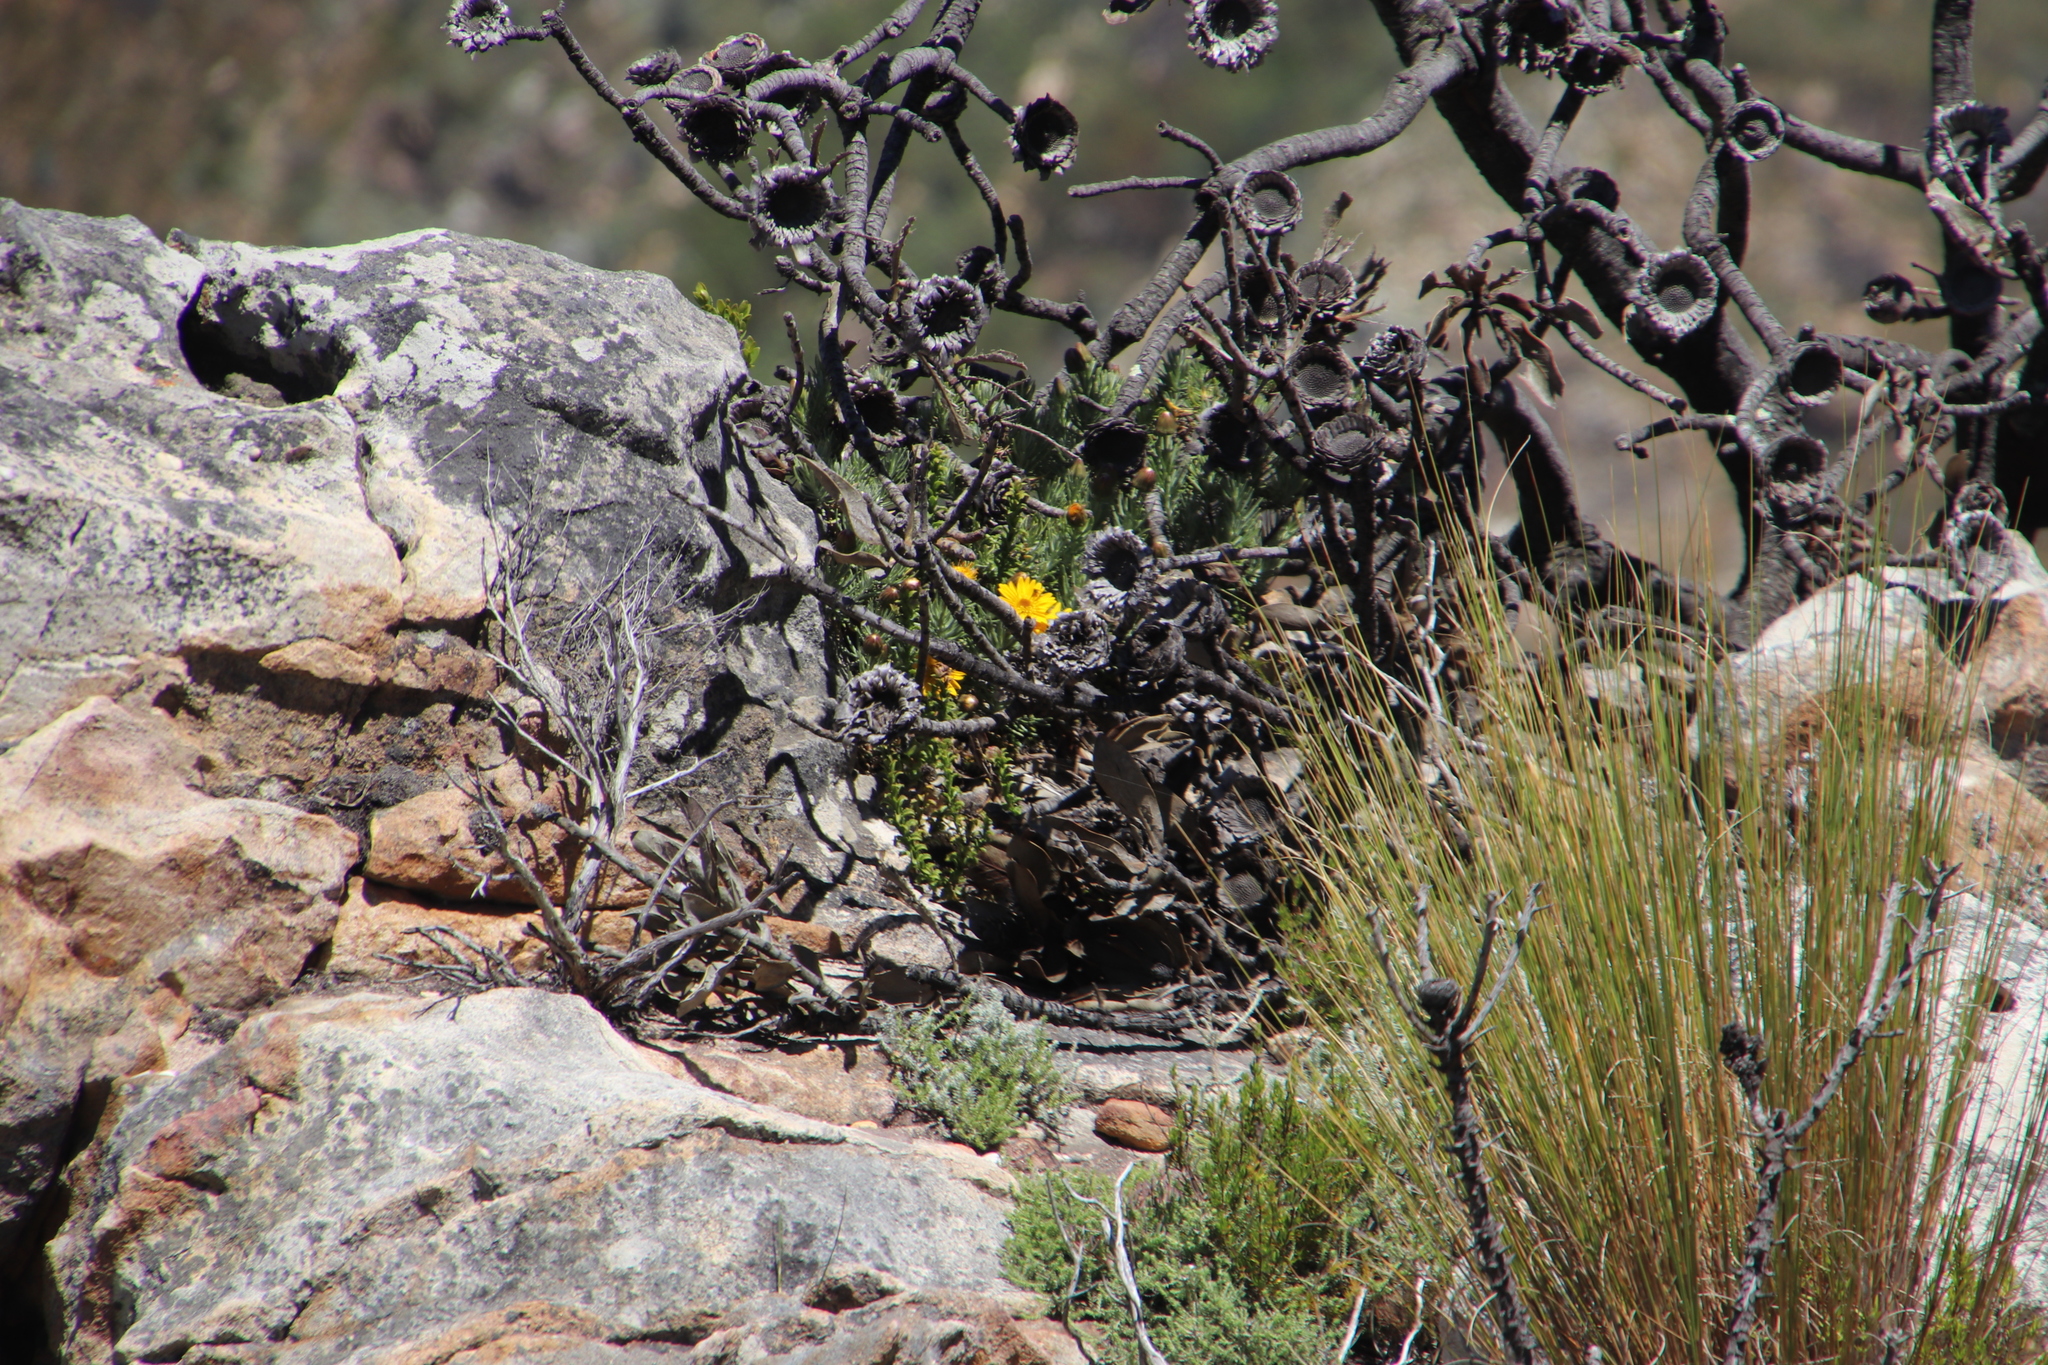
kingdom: Plantae
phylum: Tracheophyta
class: Magnoliopsida
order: Asterales
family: Asteraceae
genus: Heterolepis
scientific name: Heterolepis aliena
